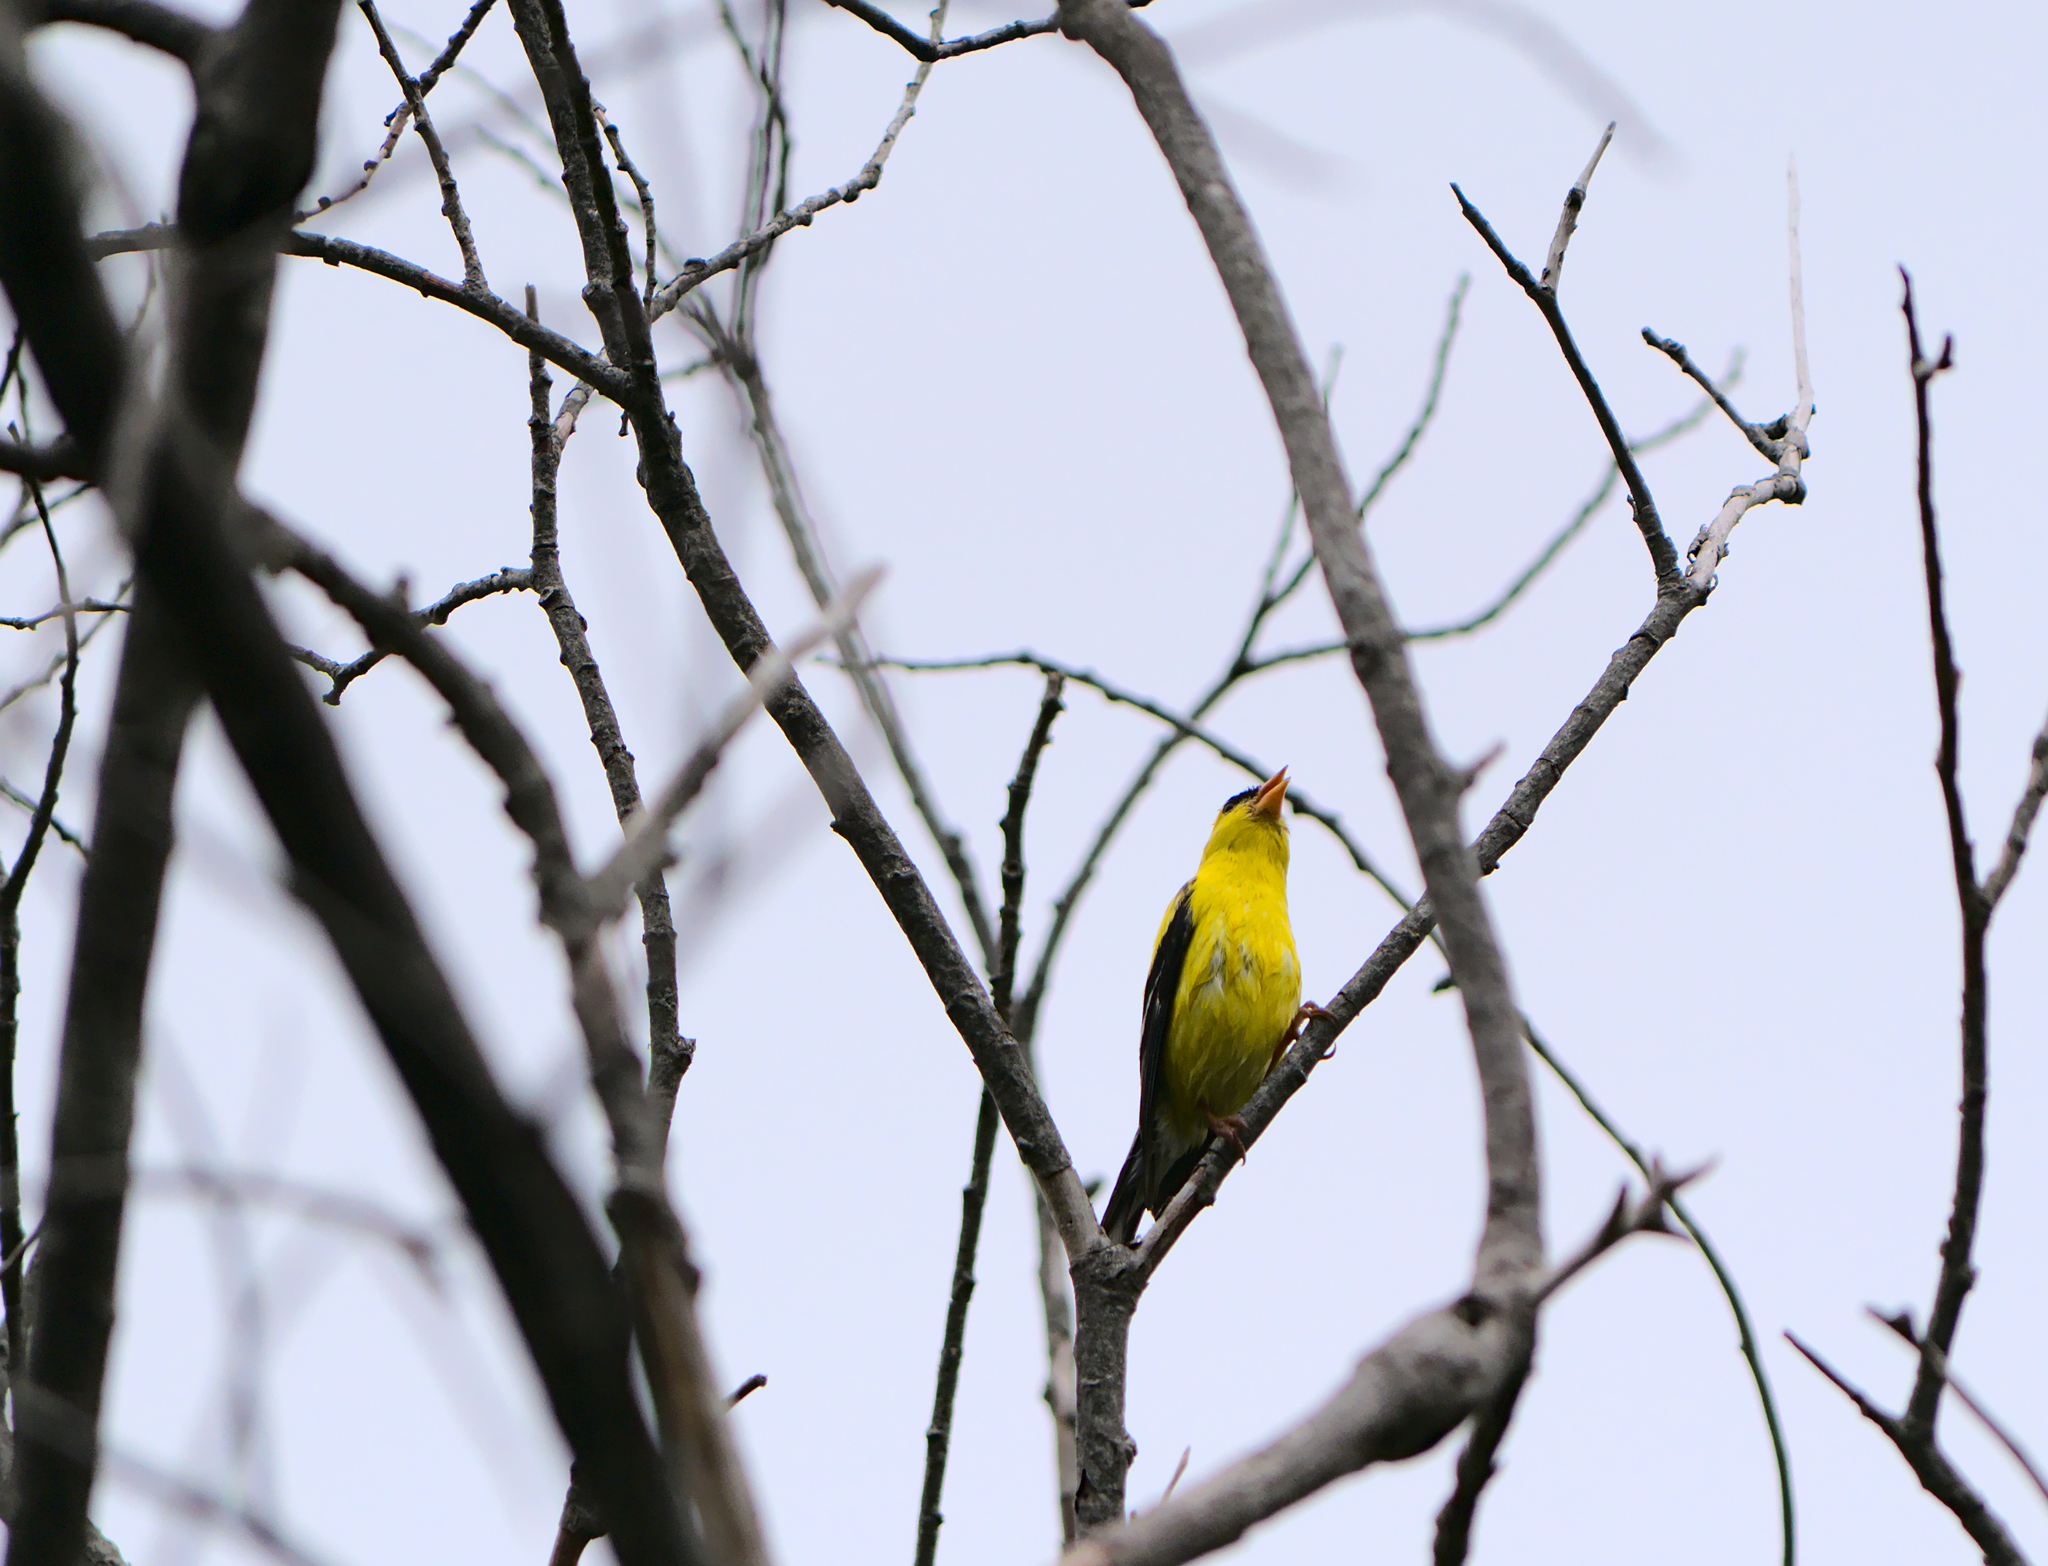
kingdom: Animalia
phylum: Chordata
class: Aves
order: Passeriformes
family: Fringillidae
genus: Spinus
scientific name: Spinus tristis
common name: American goldfinch
